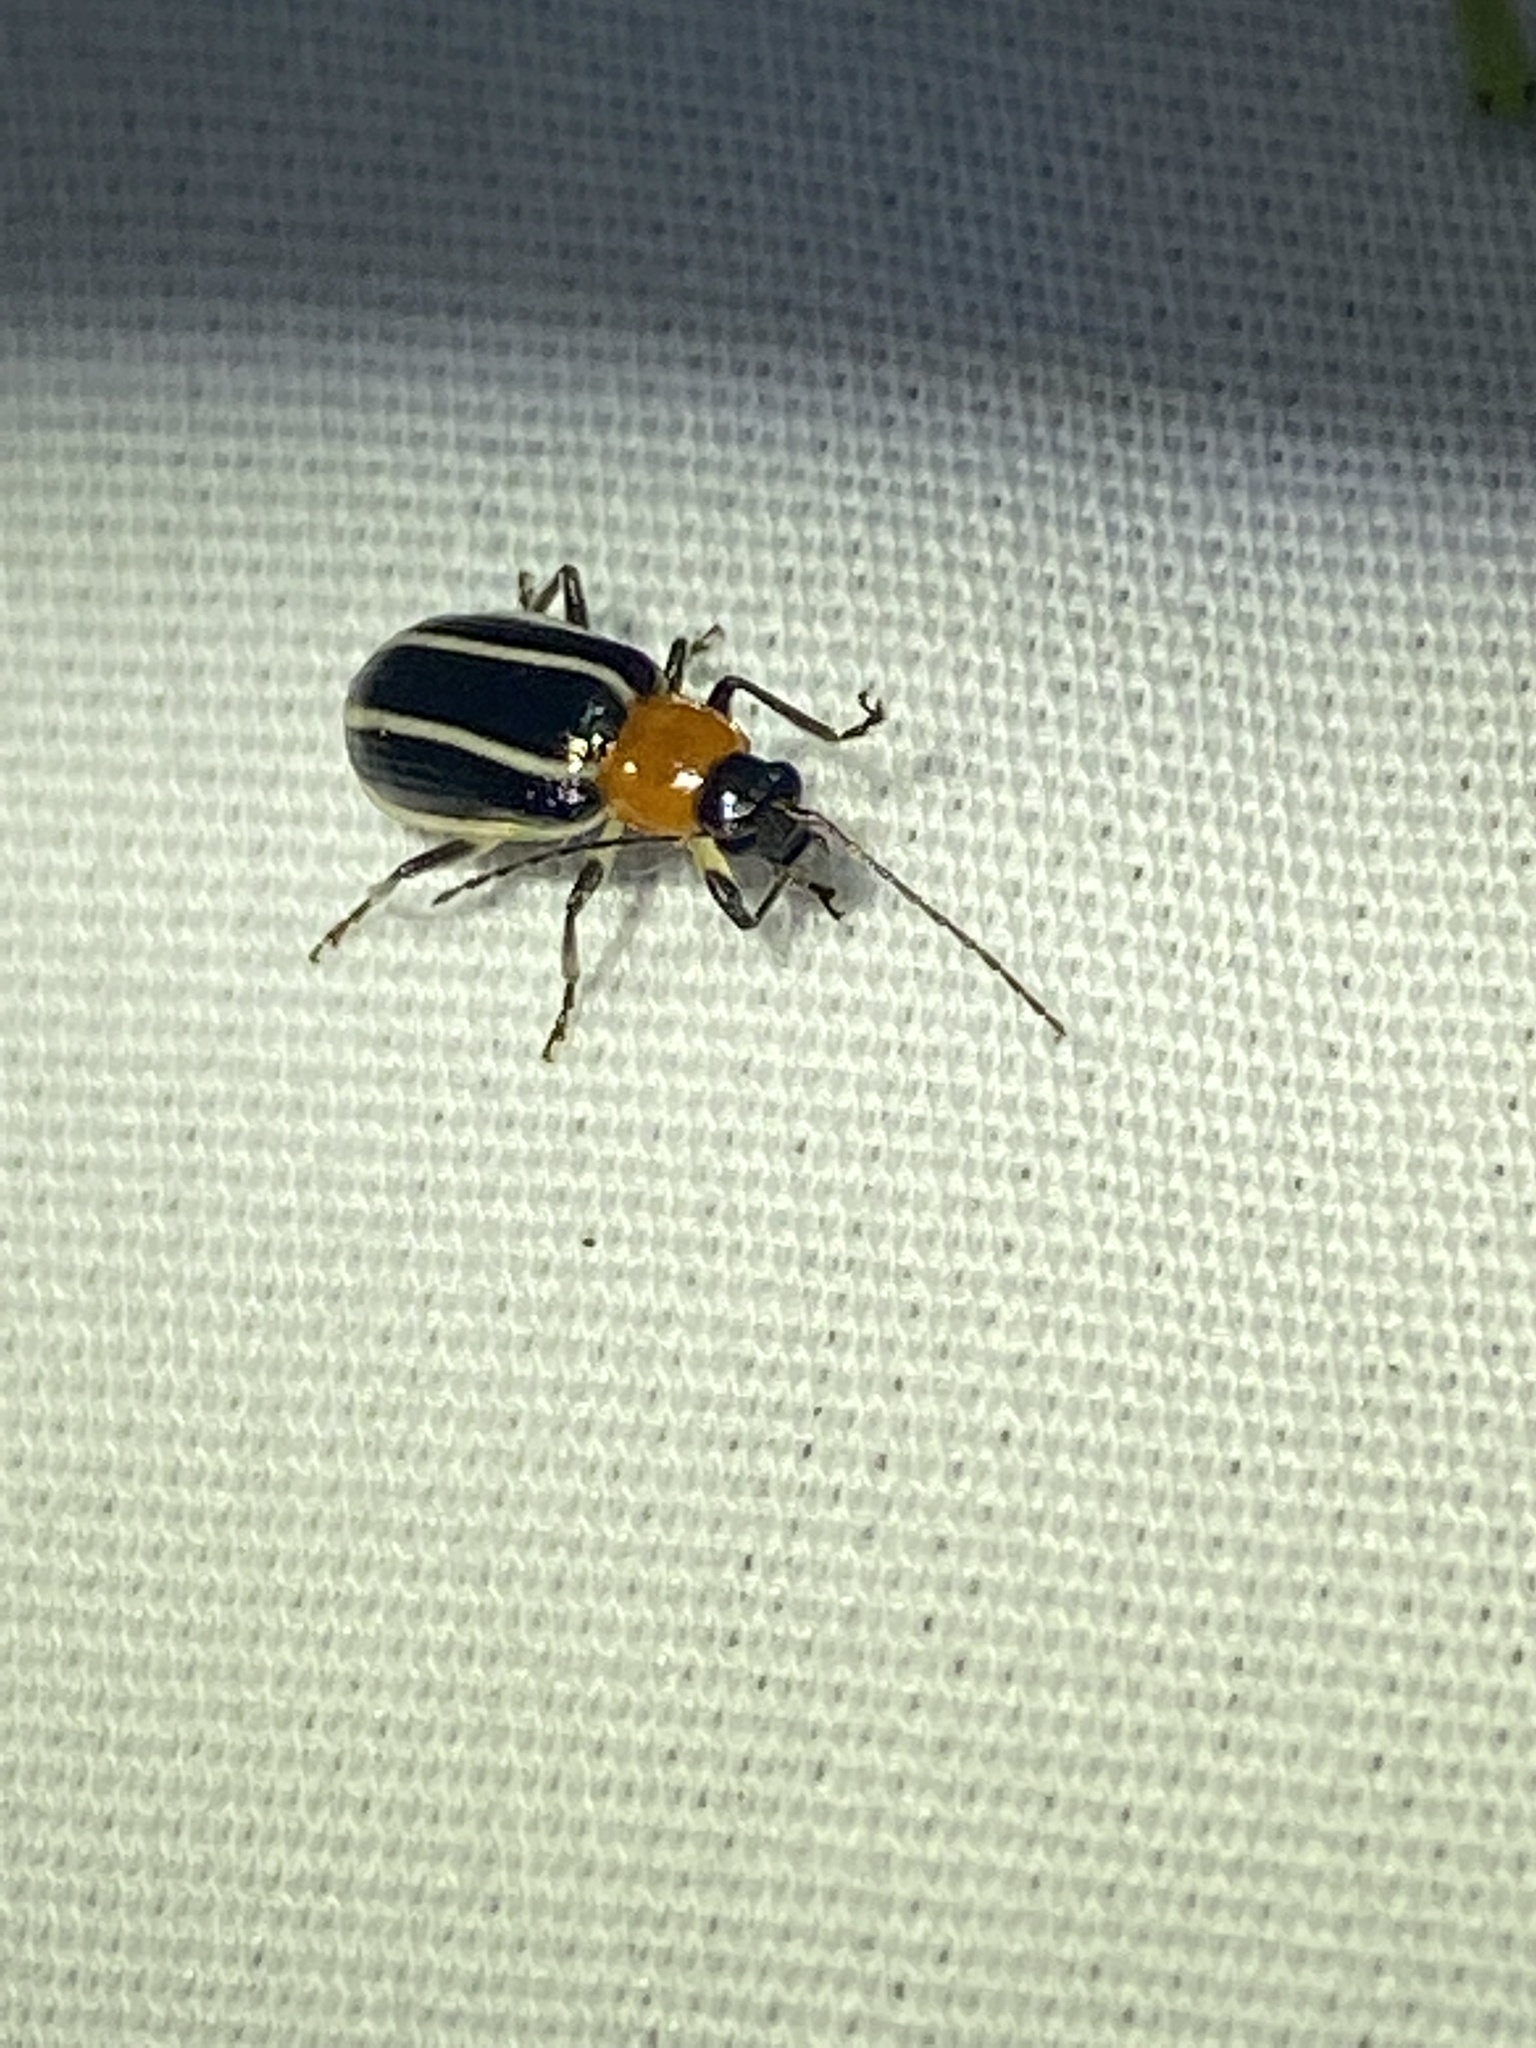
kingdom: Animalia
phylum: Arthropoda
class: Insecta
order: Coleoptera
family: Chrysomelidae
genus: Acalymma
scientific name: Acalymma vinctum
